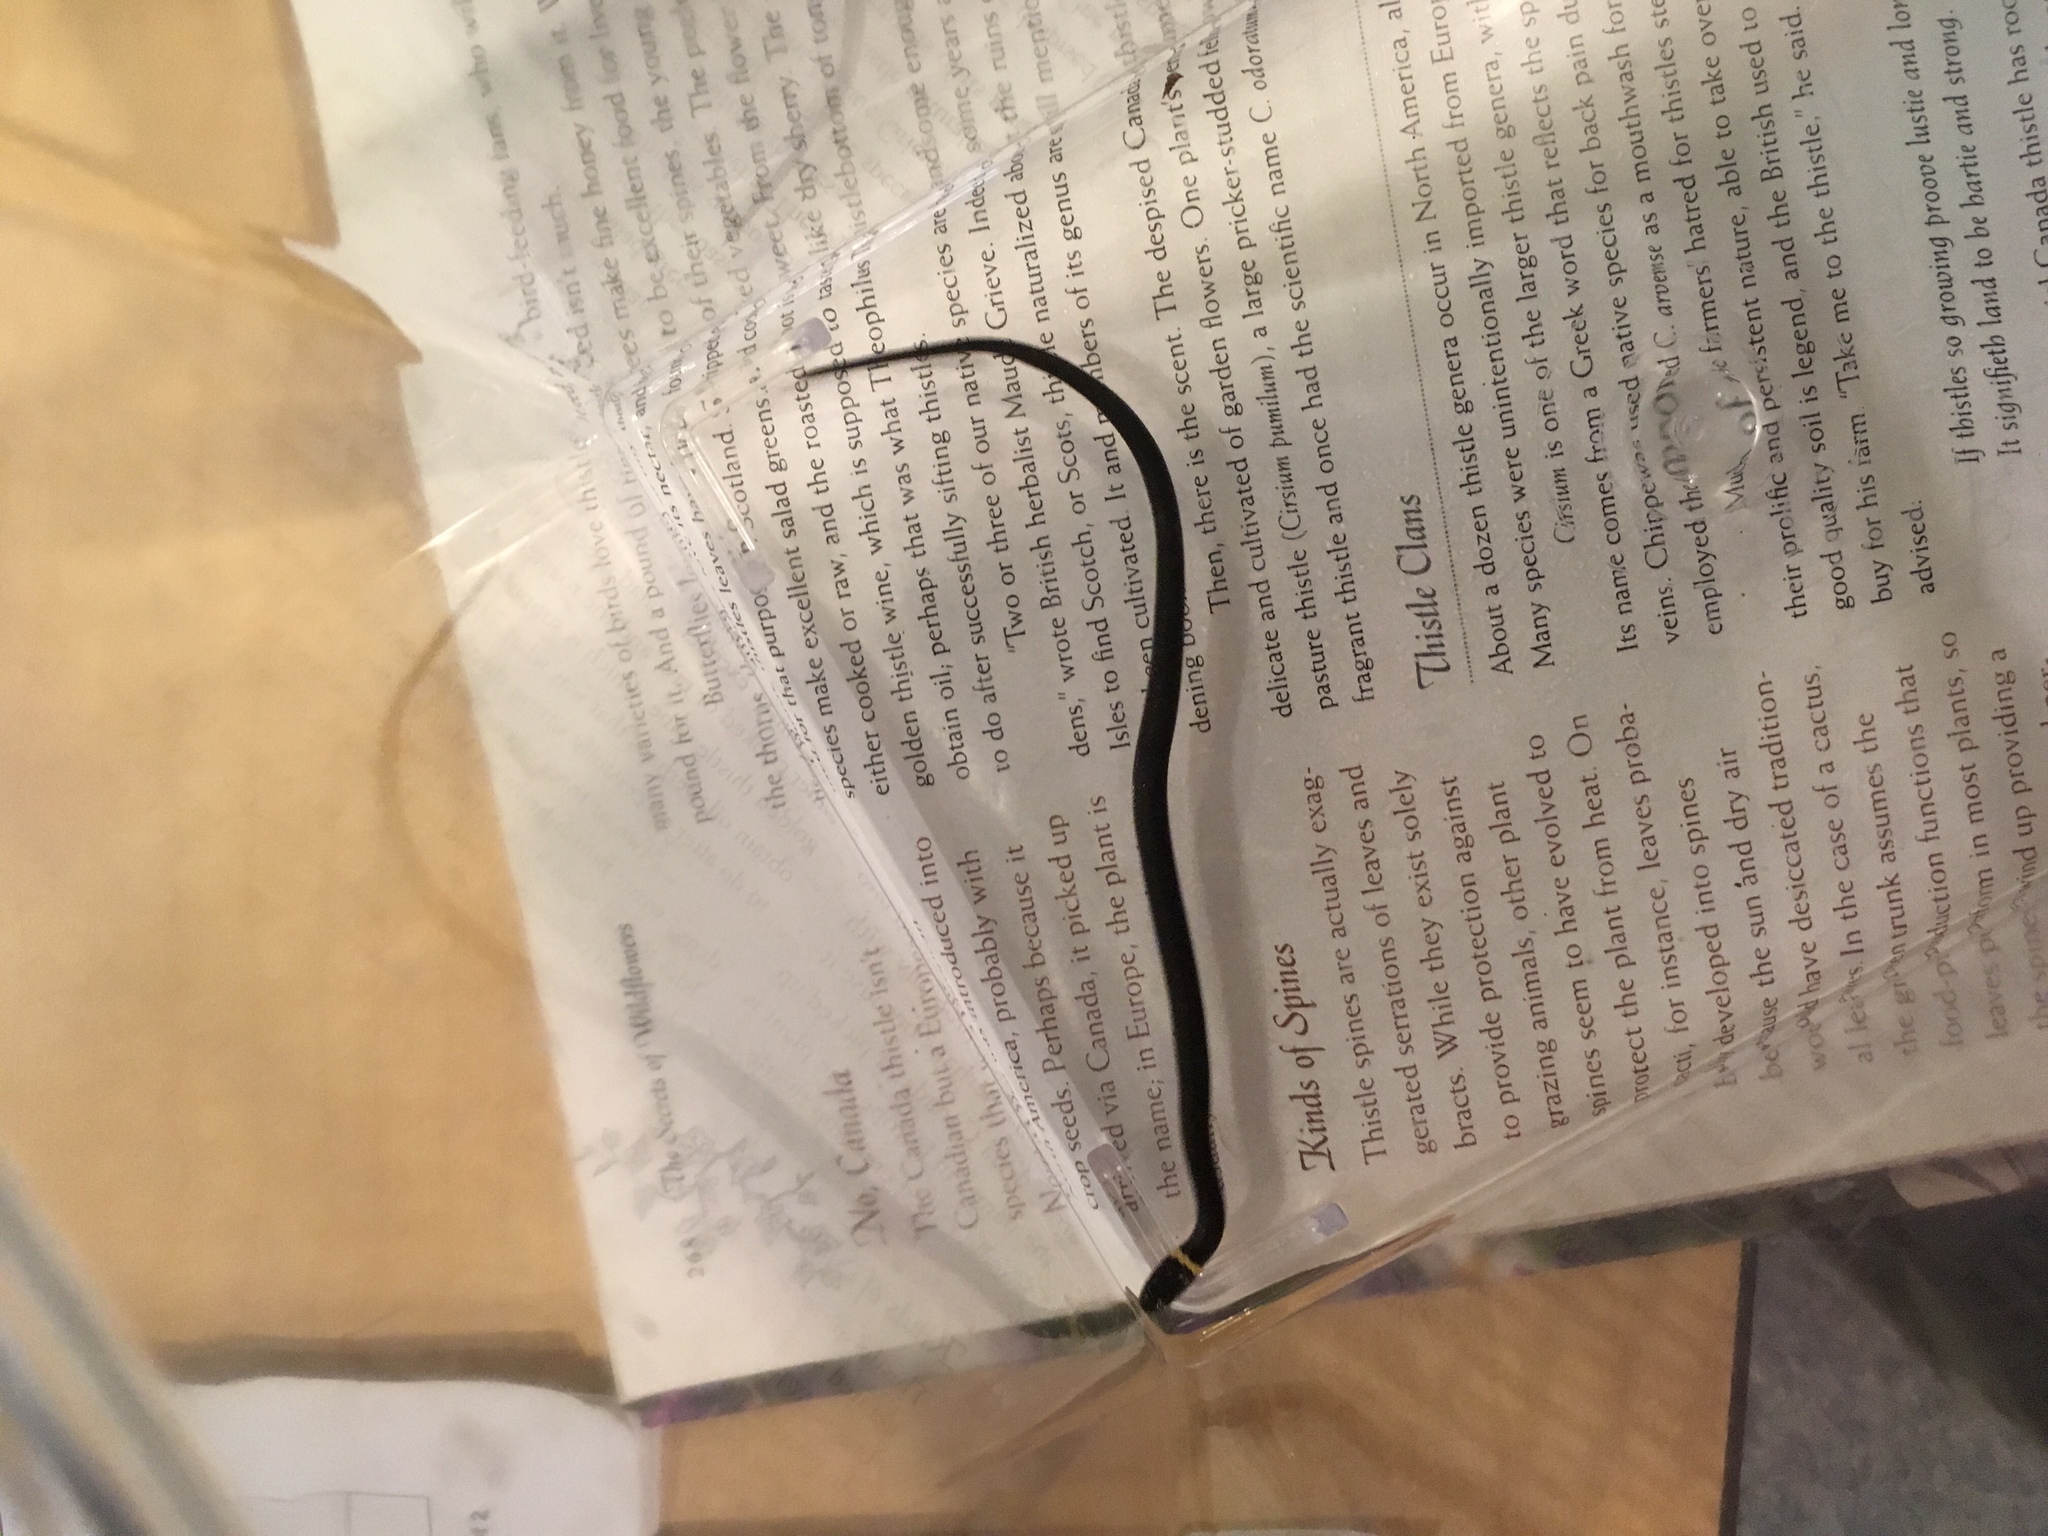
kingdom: Animalia
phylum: Chordata
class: Squamata
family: Colubridae
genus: Diadophis
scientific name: Diadophis punctatus
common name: Ringneck snake
